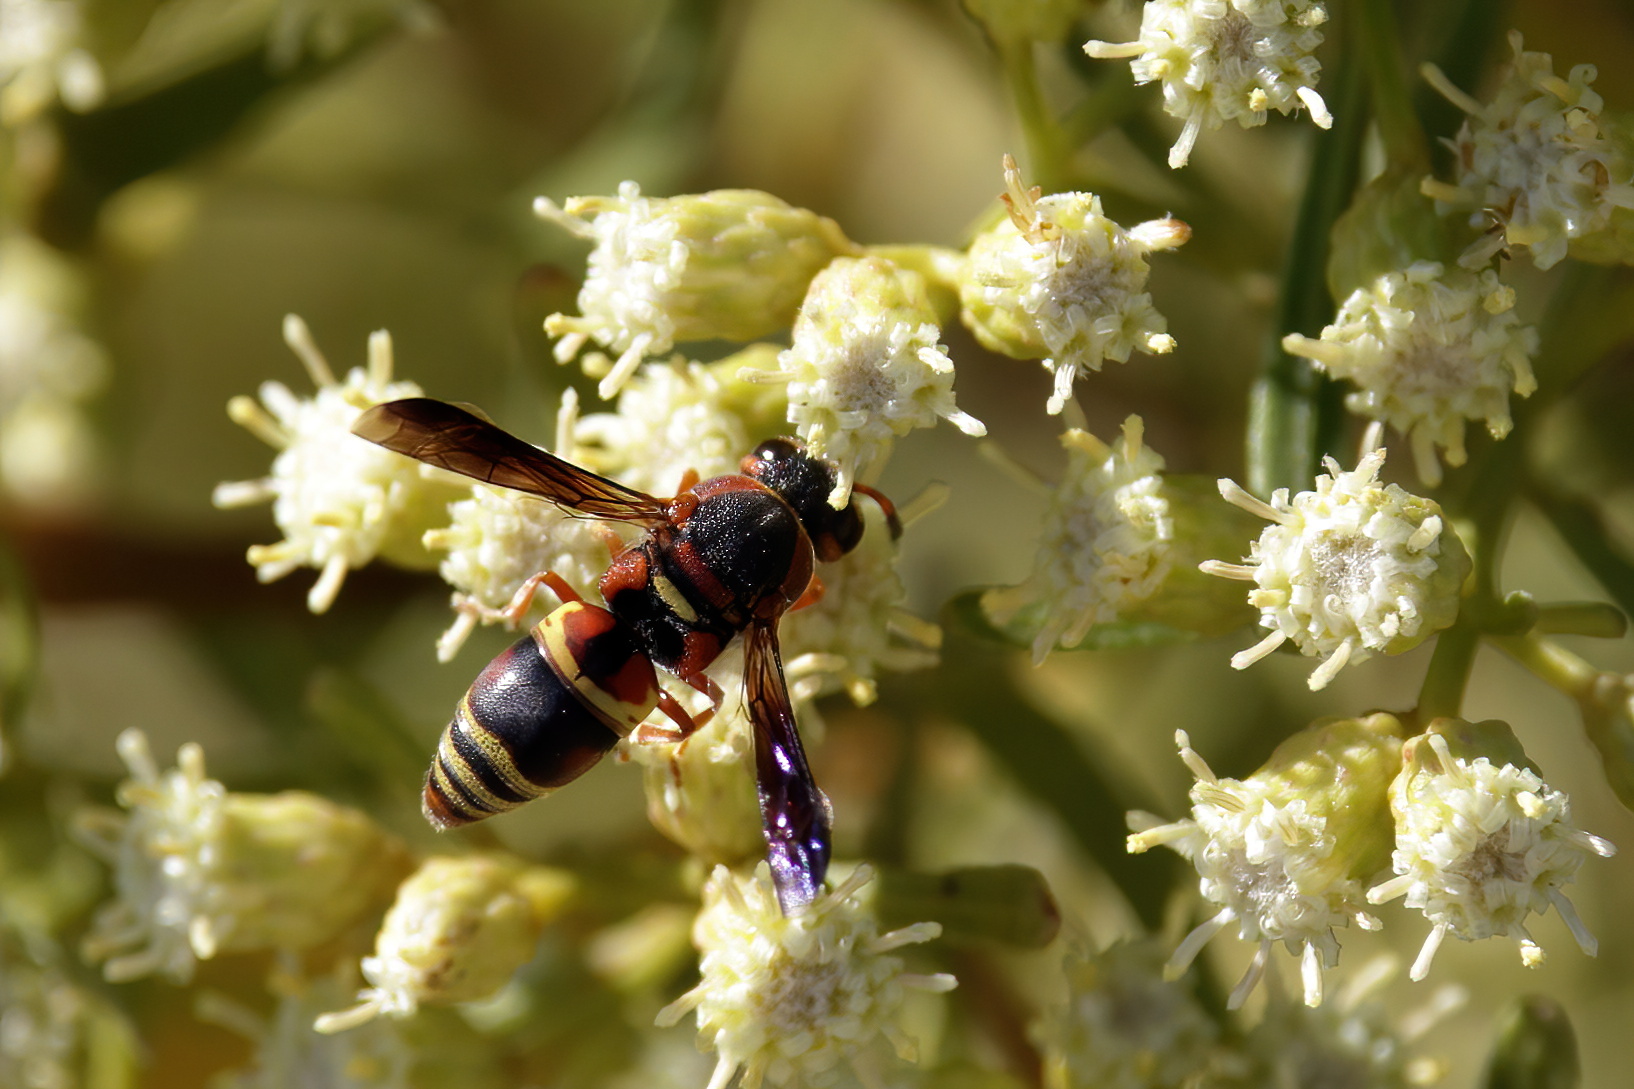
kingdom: Animalia
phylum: Arthropoda
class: Insecta
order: Hymenoptera
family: Eumenidae
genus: Euodynerus
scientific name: Euodynerus hidalgo
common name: Wasp
